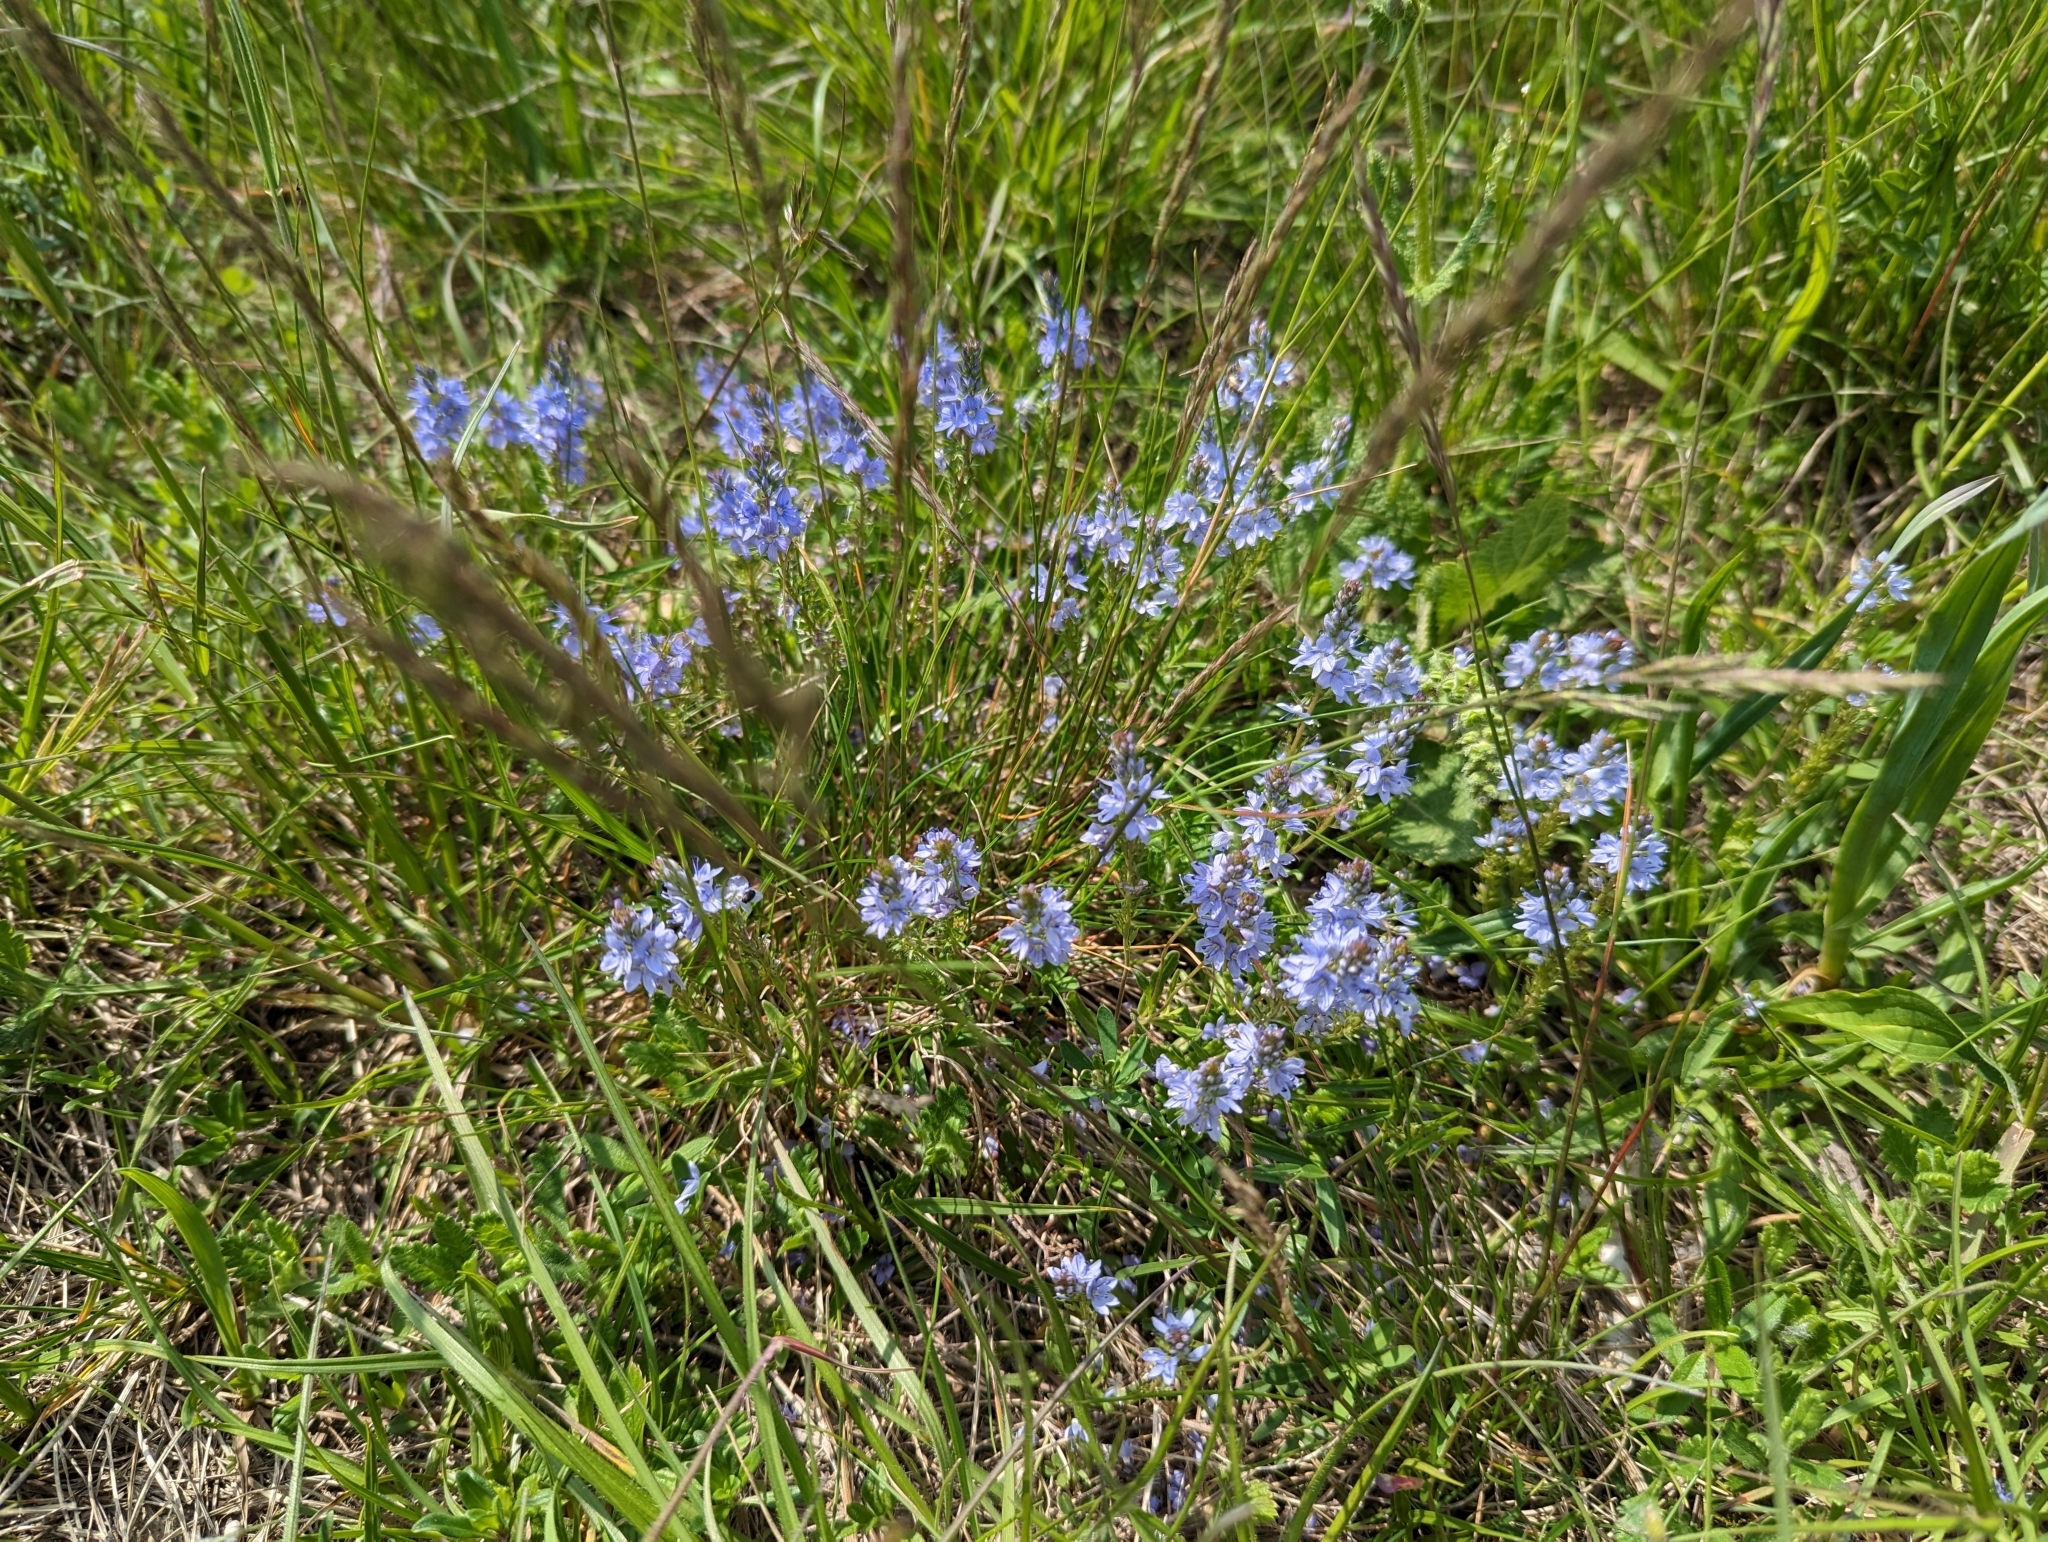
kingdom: Plantae
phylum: Tracheophyta
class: Magnoliopsida
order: Lamiales
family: Plantaginaceae
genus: Veronica
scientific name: Veronica prostrata
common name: Prostrate speedwell
